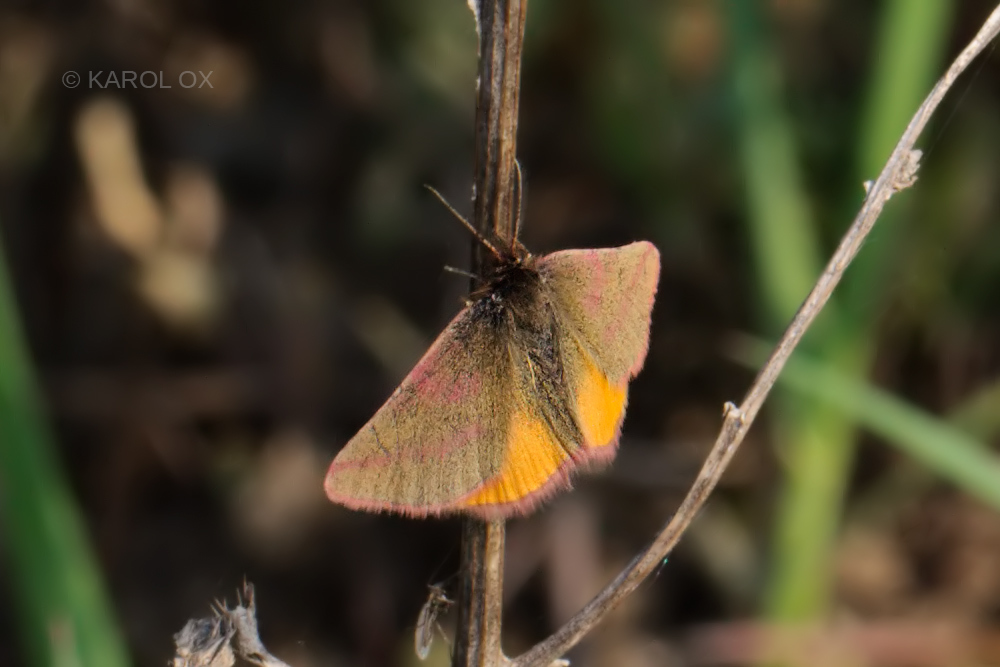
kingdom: Animalia
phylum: Arthropoda
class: Insecta
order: Lepidoptera
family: Geometridae
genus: Lythria
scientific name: Lythria purpuraria
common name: Purple-barred yellow
